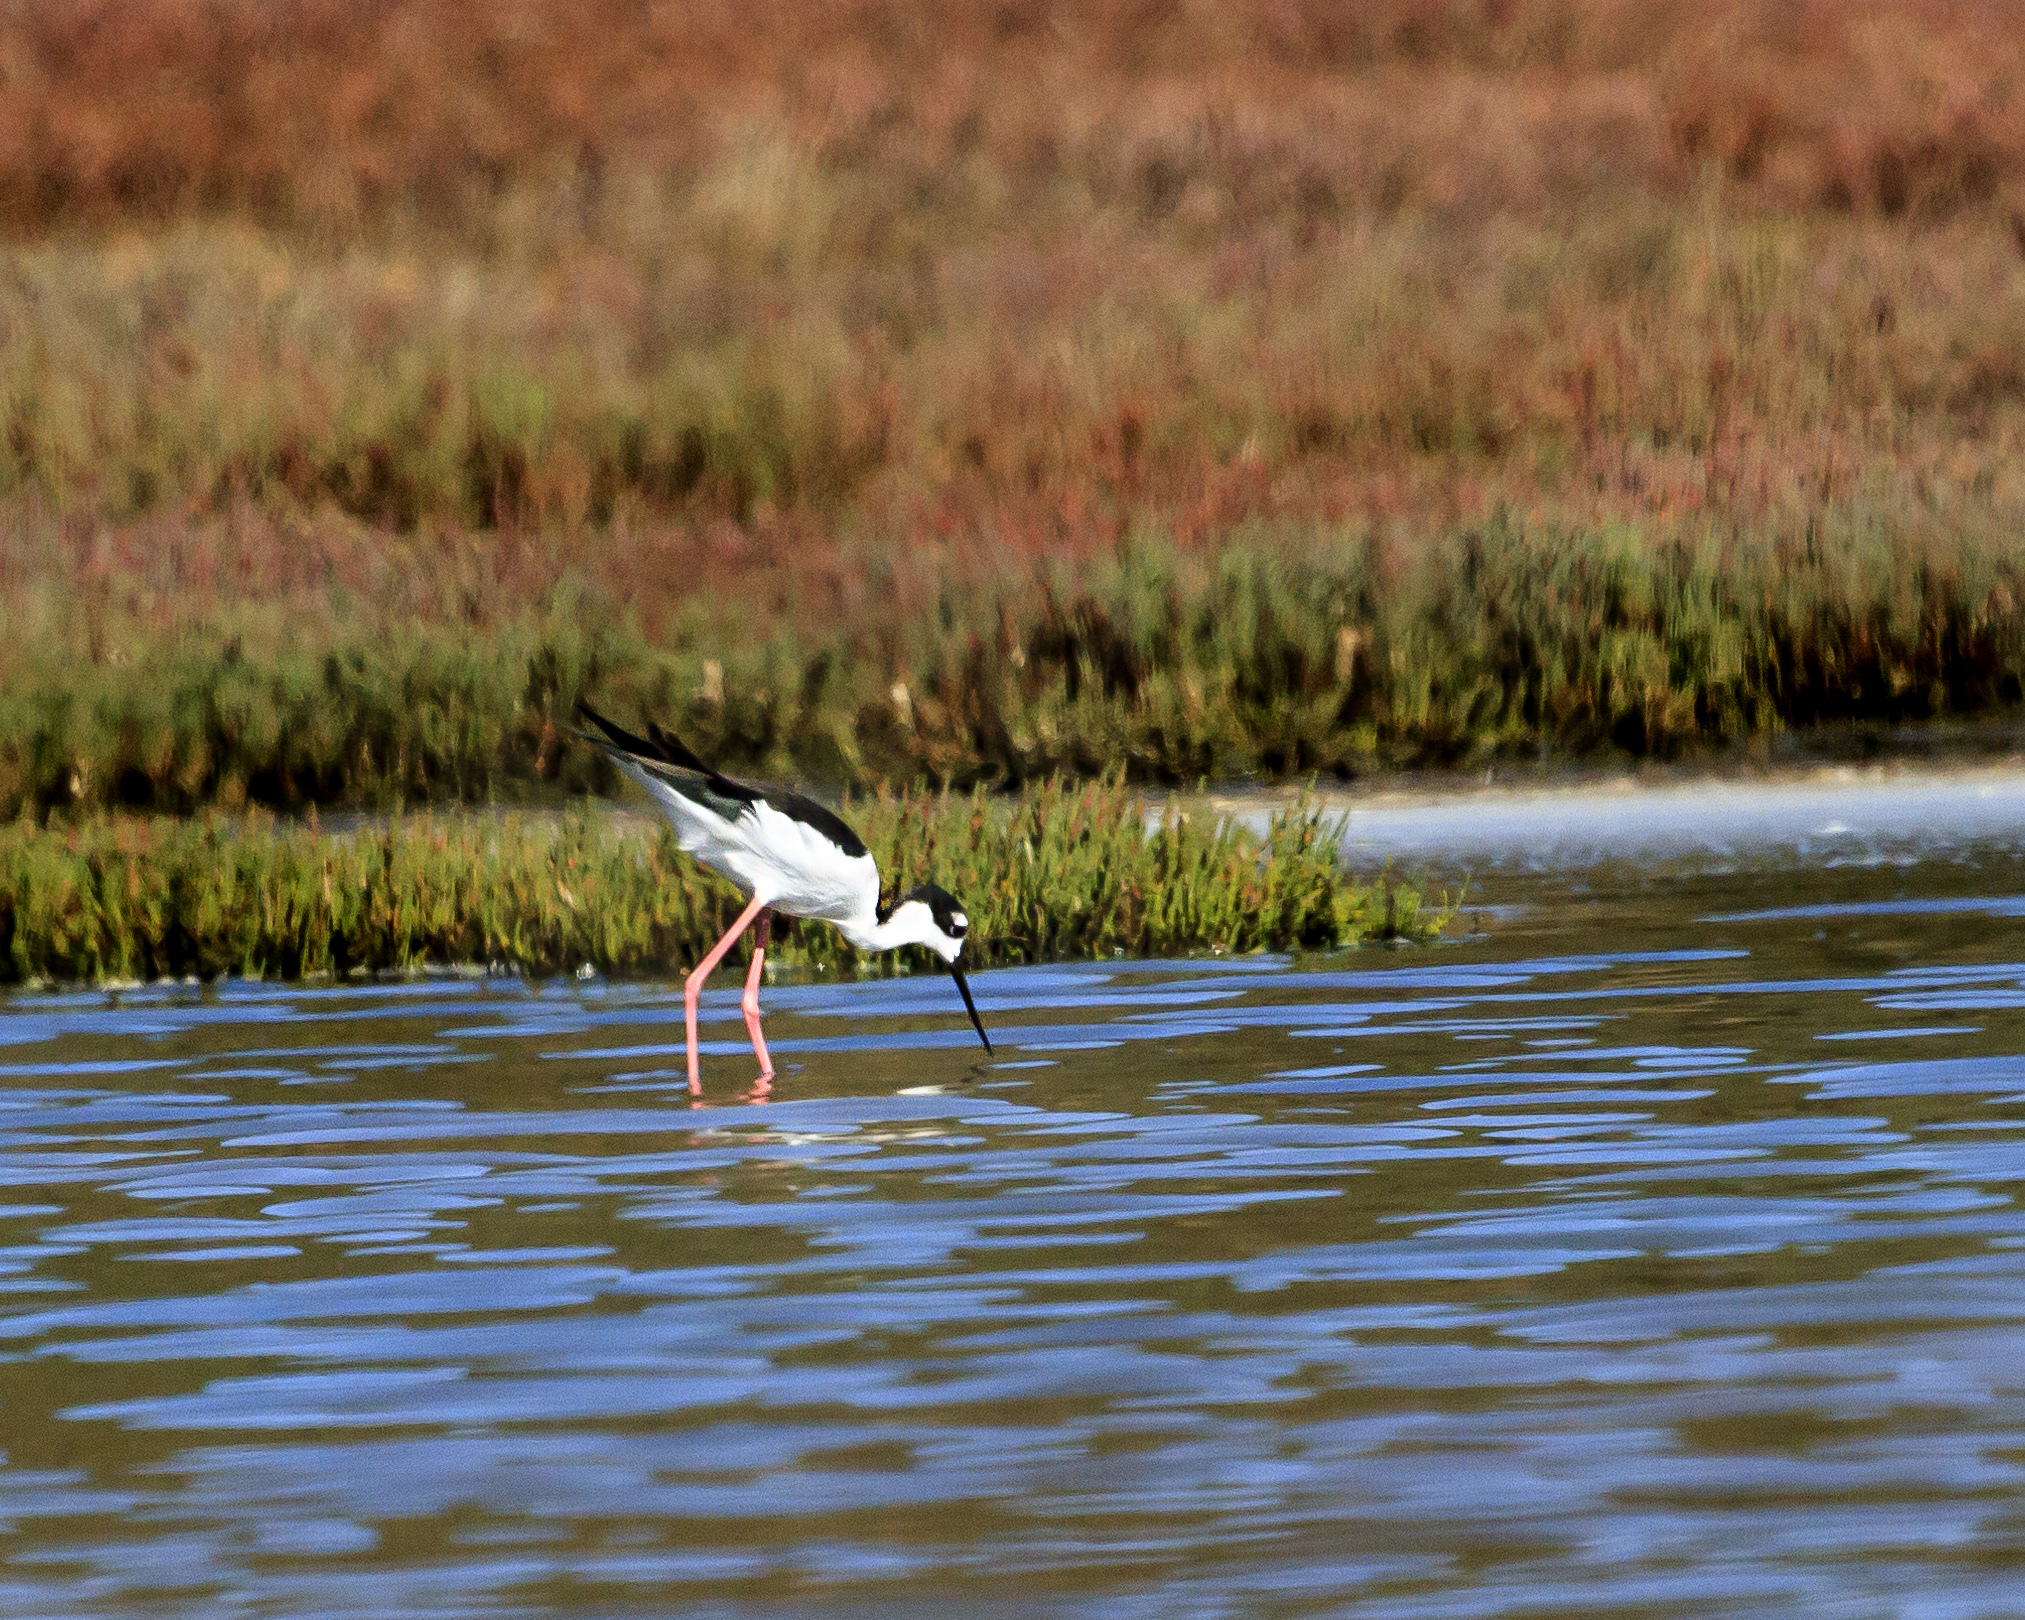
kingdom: Animalia
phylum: Chordata
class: Aves
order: Charadriiformes
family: Recurvirostridae
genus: Himantopus
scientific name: Himantopus mexicanus
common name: Black-necked stilt
